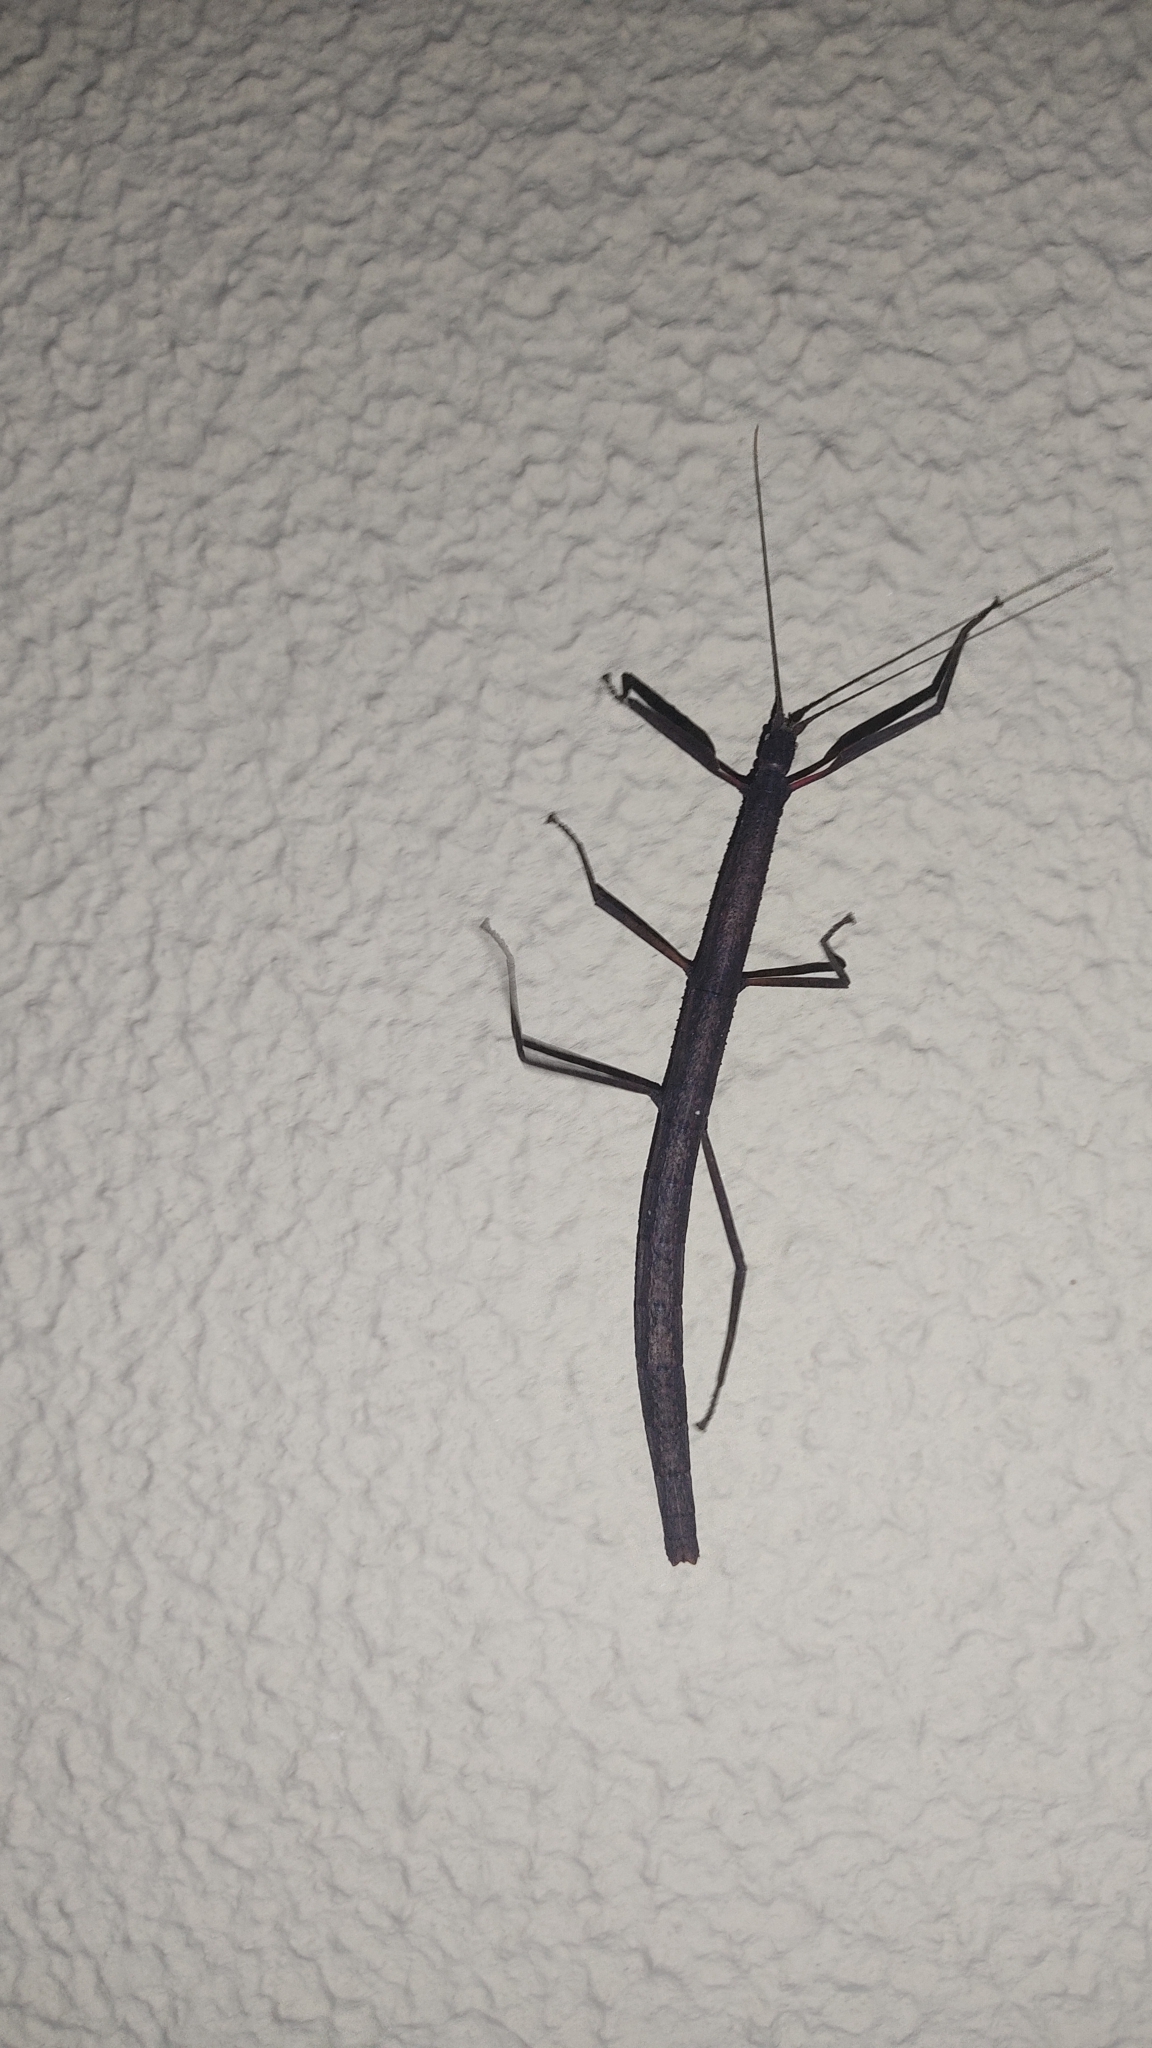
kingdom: Animalia
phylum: Arthropoda
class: Insecta
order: Phasmida
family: Lonchodidae
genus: Carausius
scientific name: Carausius morosus
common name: Indian stick insect
